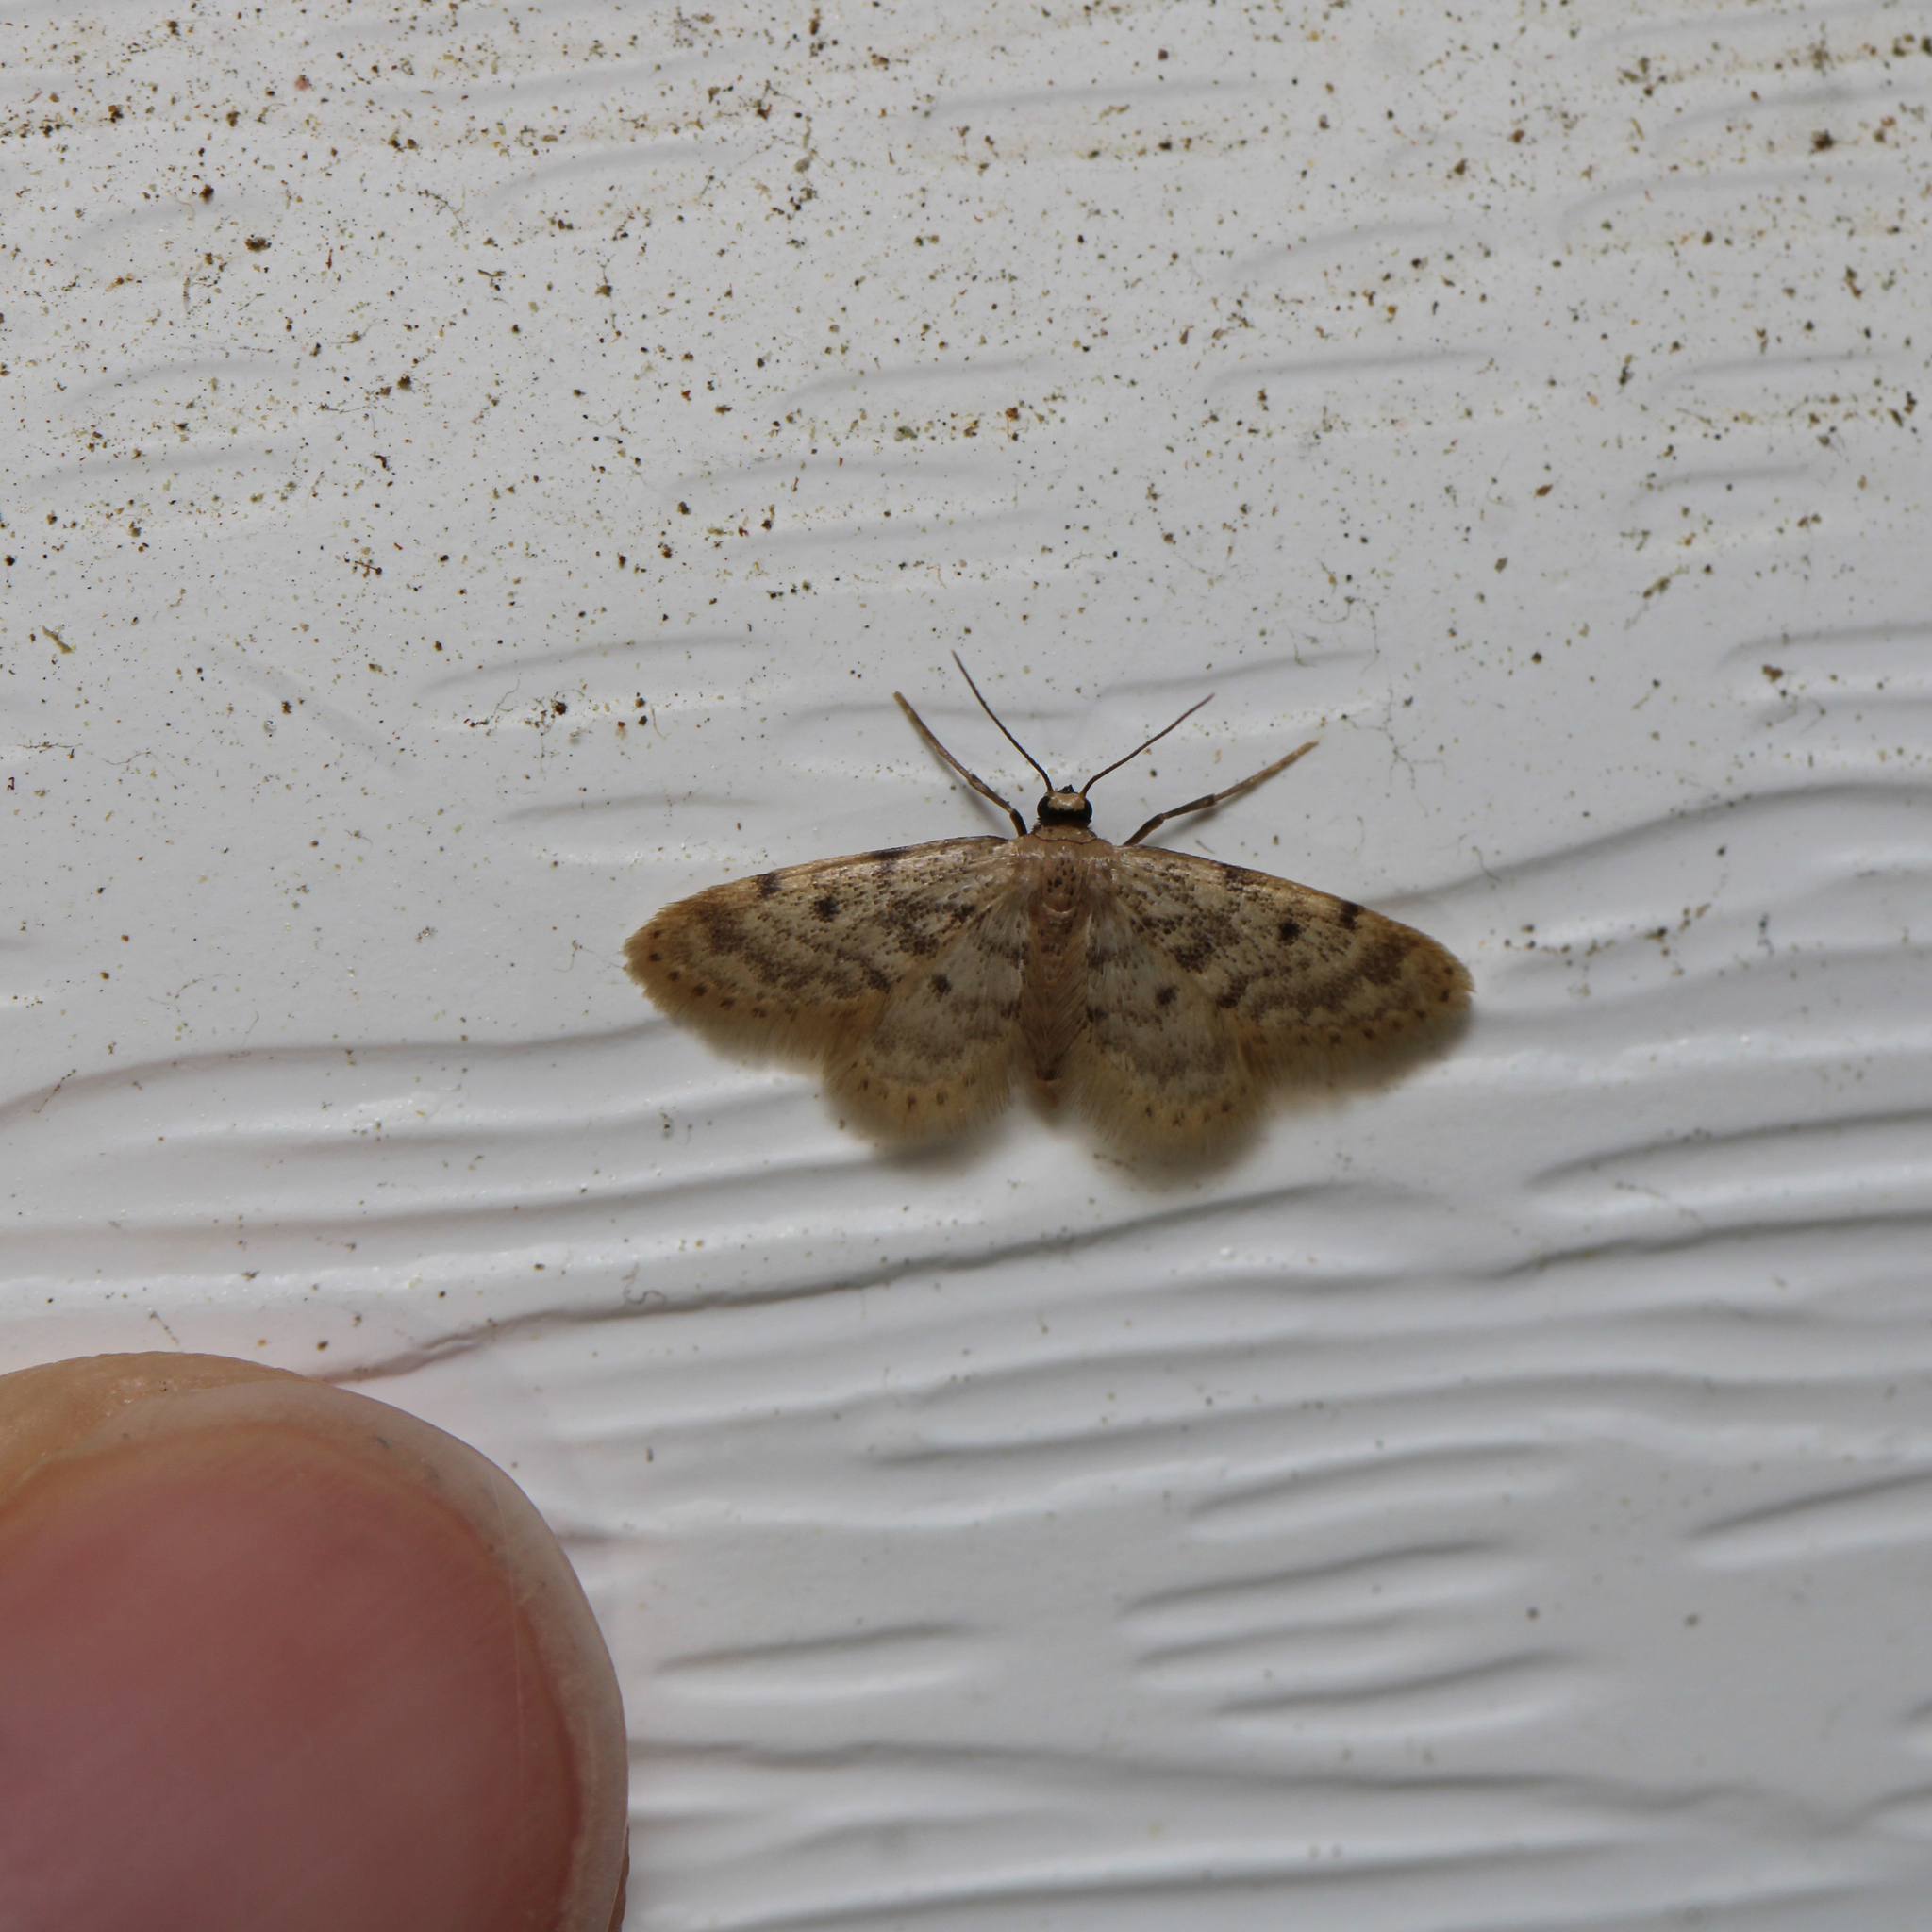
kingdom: Animalia
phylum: Arthropoda
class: Insecta
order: Lepidoptera
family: Geometridae
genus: Idaea
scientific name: Idaea bonifata
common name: Fortunate wave
